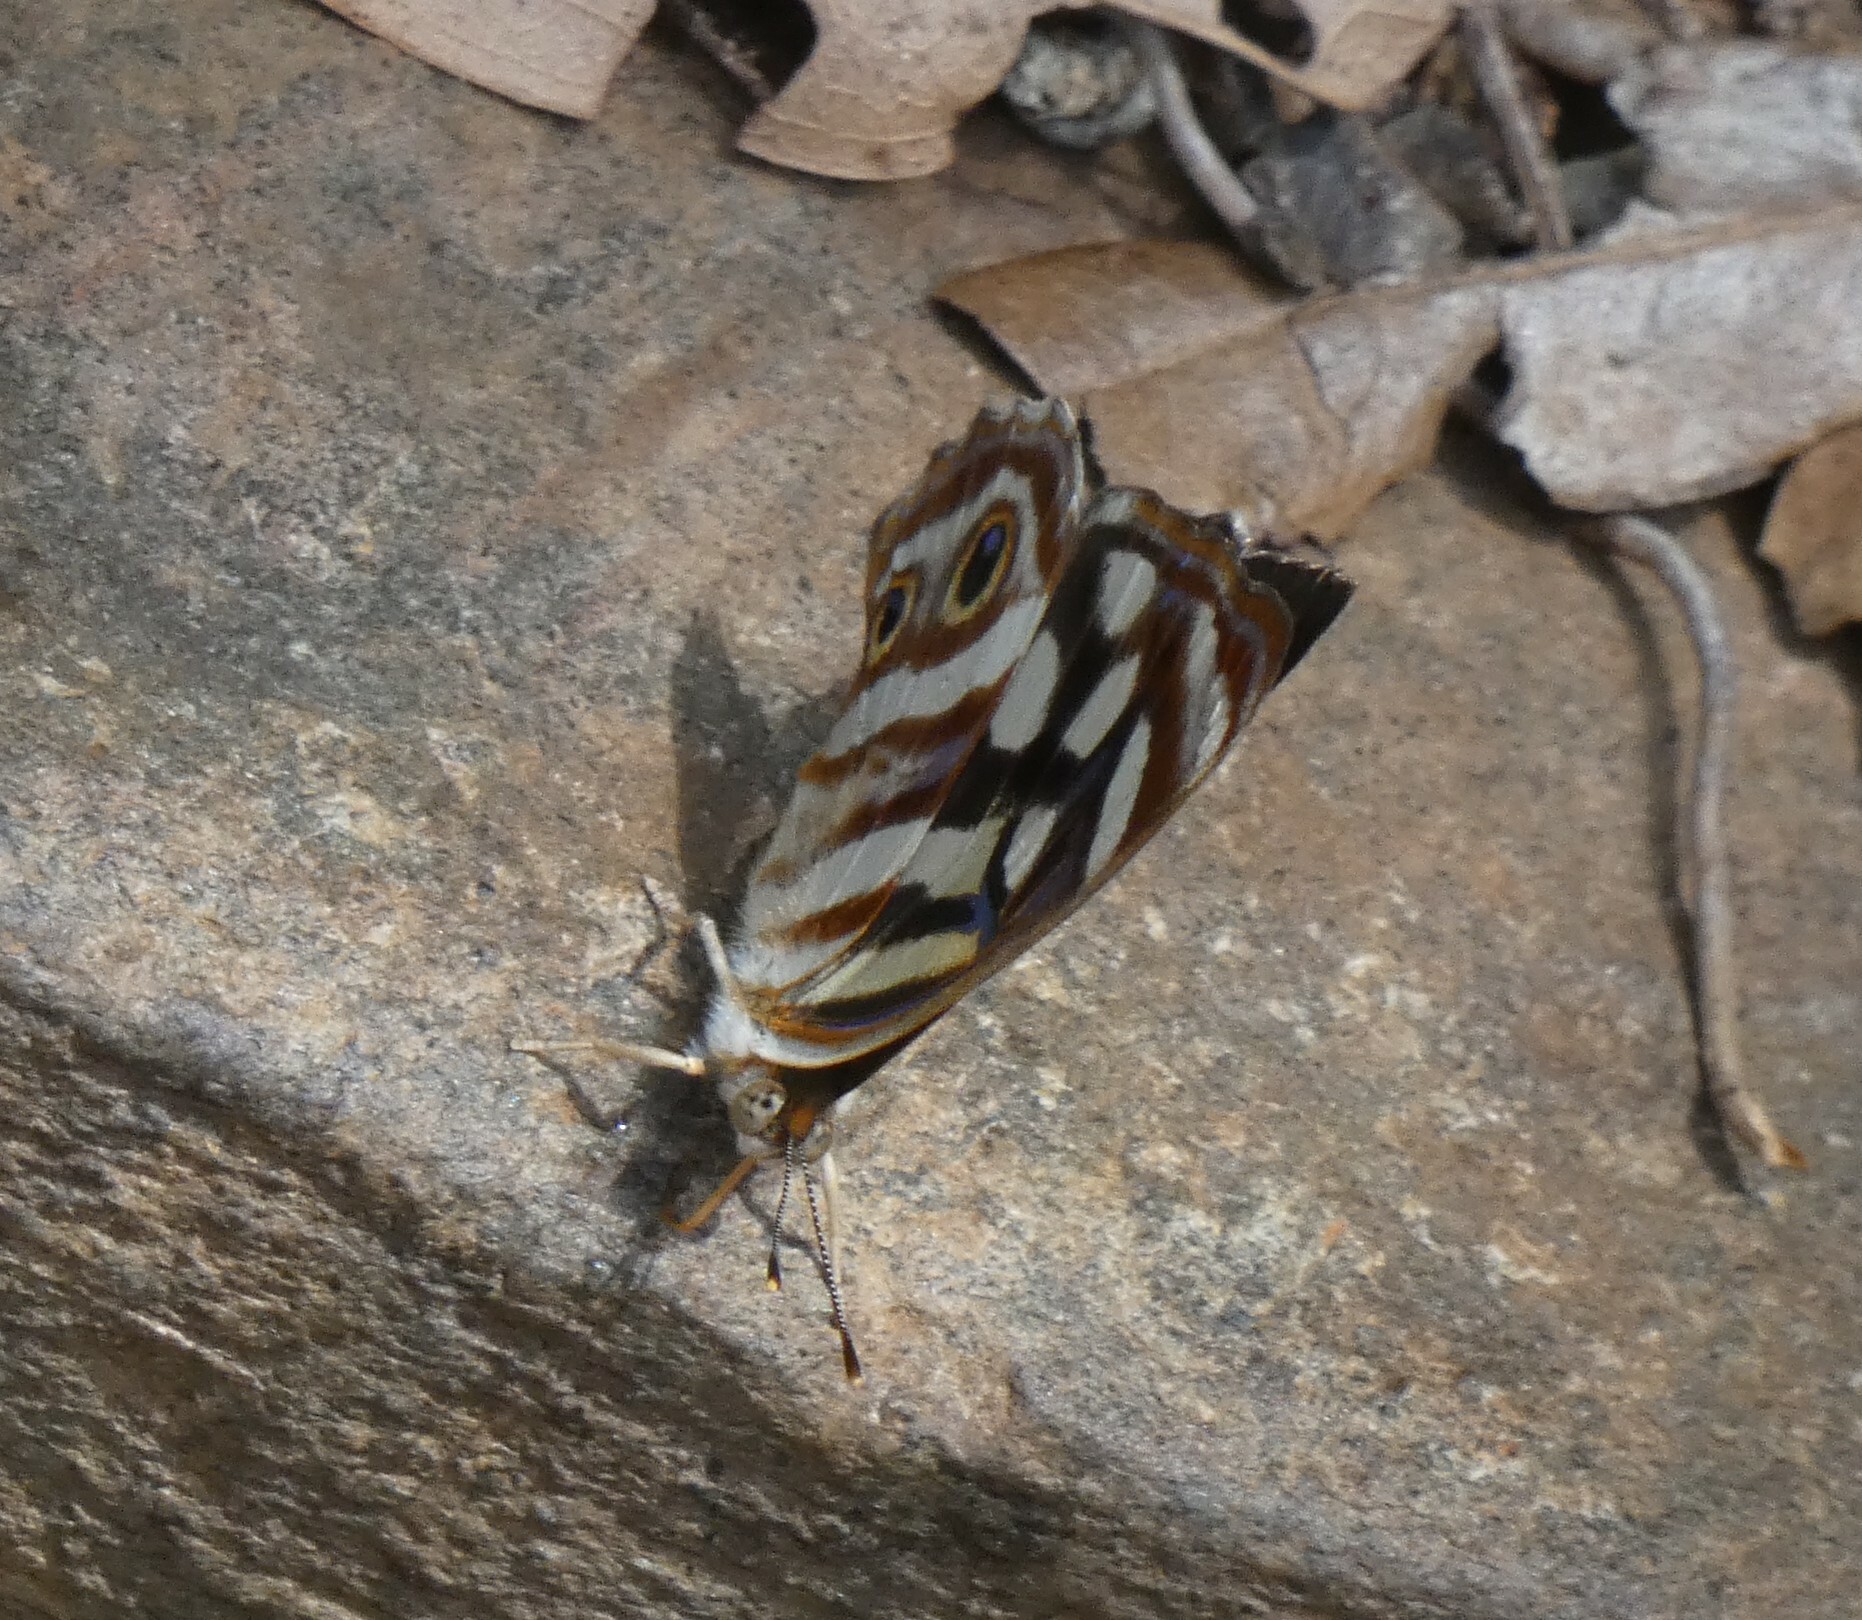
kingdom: Animalia
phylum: Arthropoda
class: Insecta
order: Lepidoptera
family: Nymphalidae
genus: Dynamine
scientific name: Dynamine mylitta
